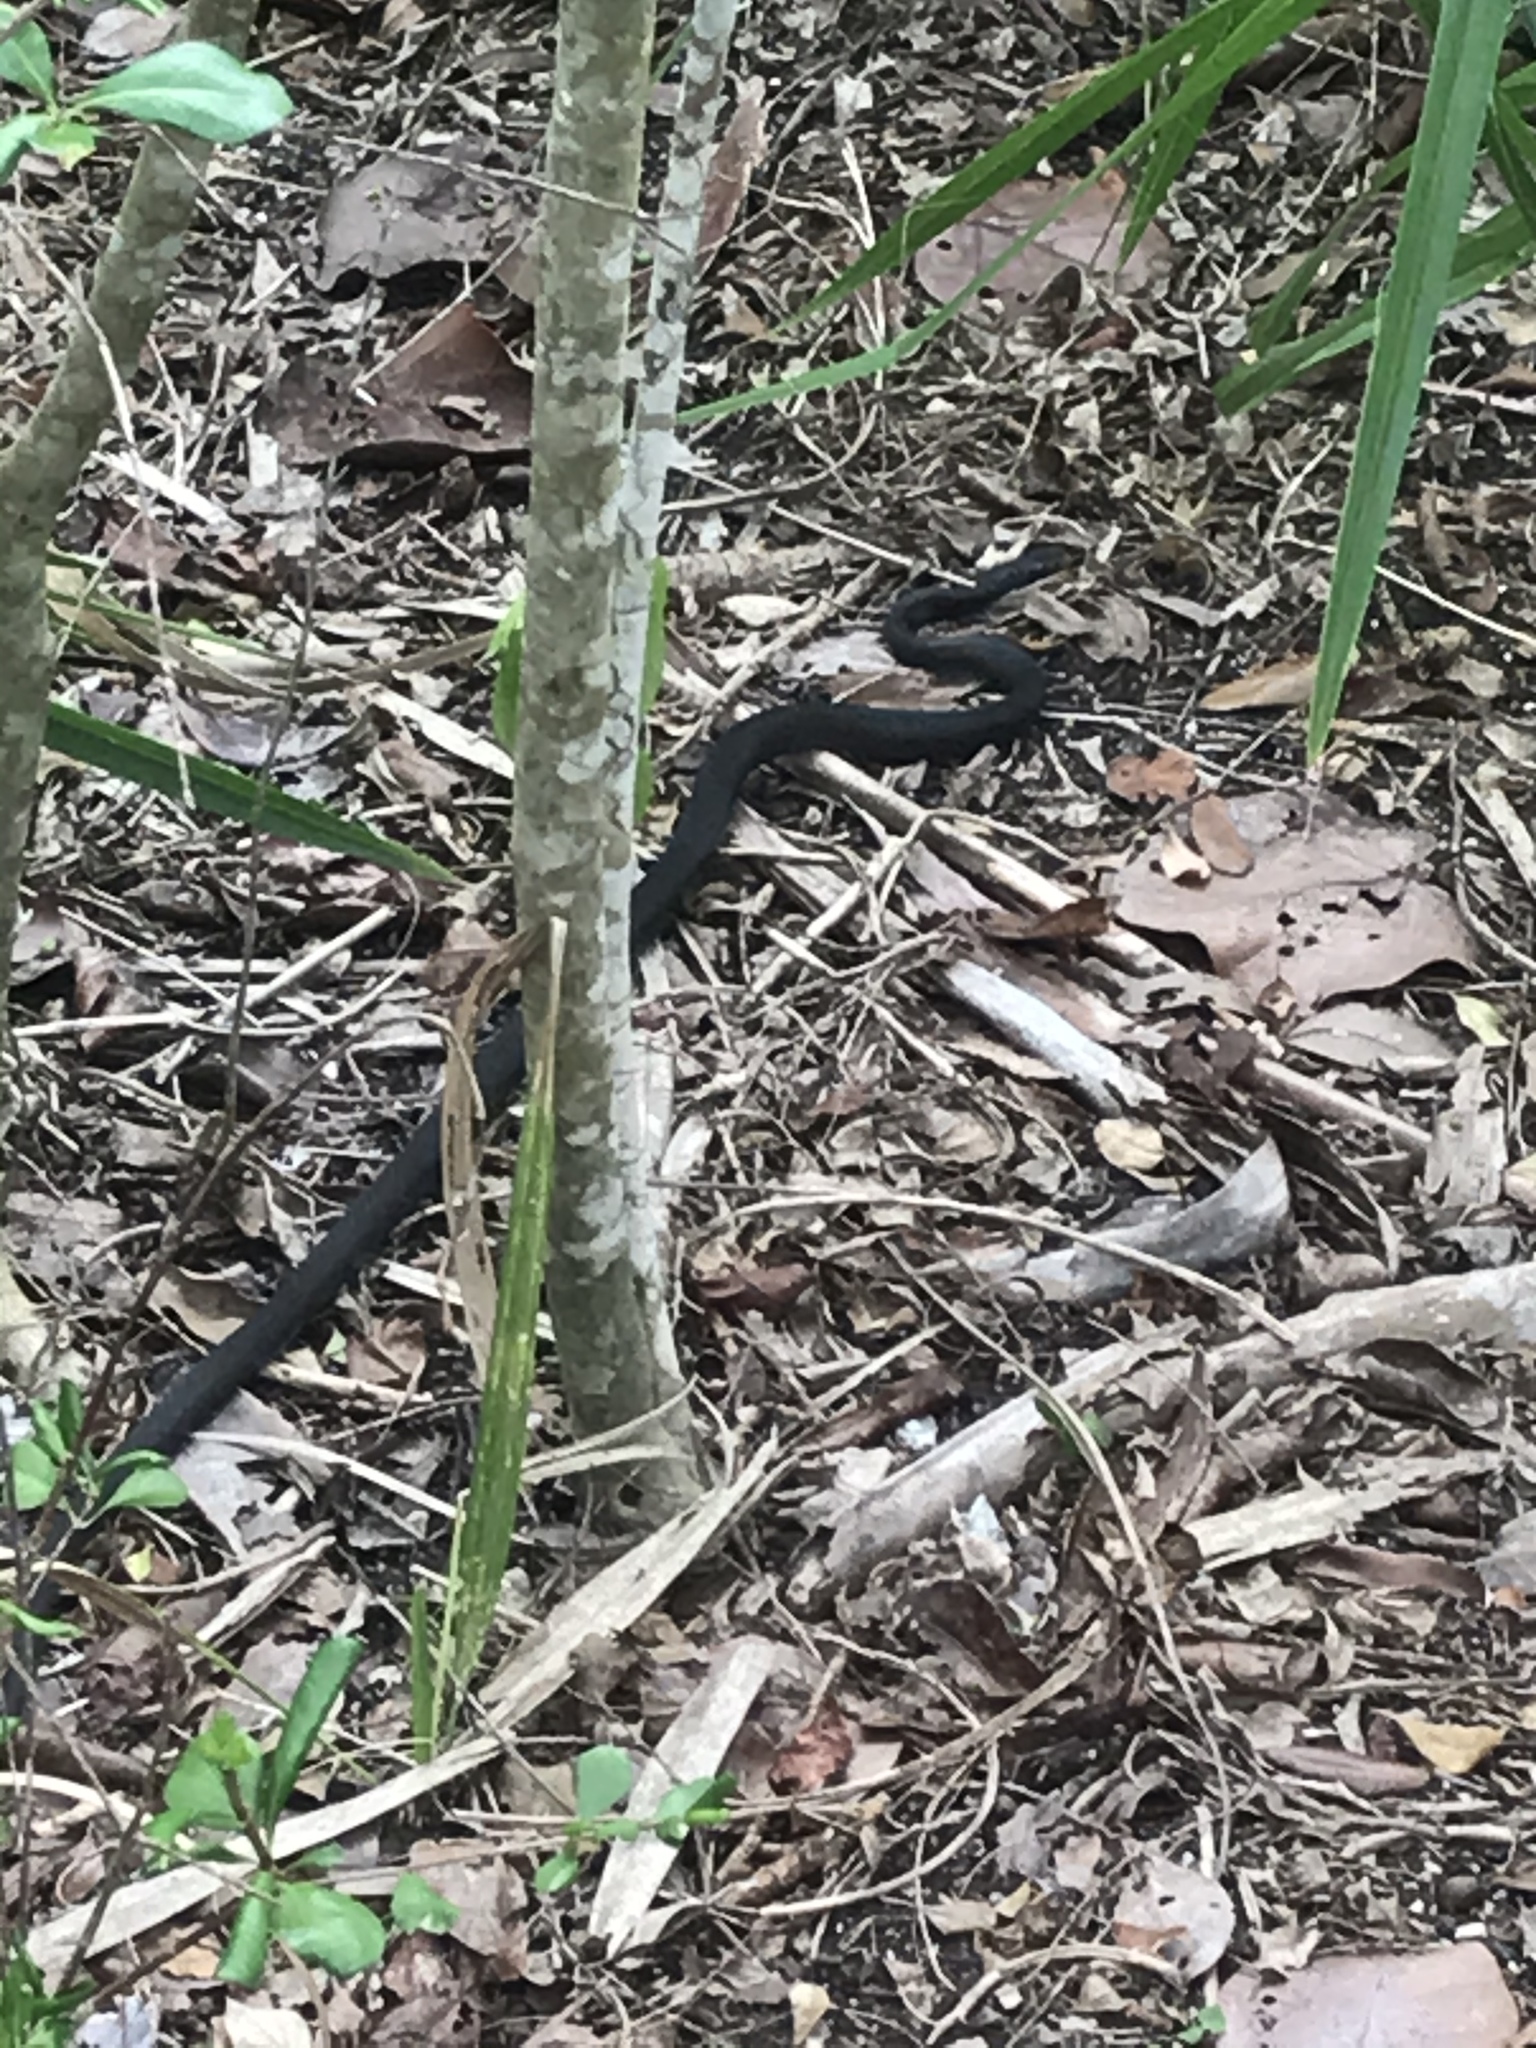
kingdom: Animalia
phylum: Chordata
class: Squamata
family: Colubridae
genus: Coluber
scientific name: Coluber constrictor
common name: Eastern racer
